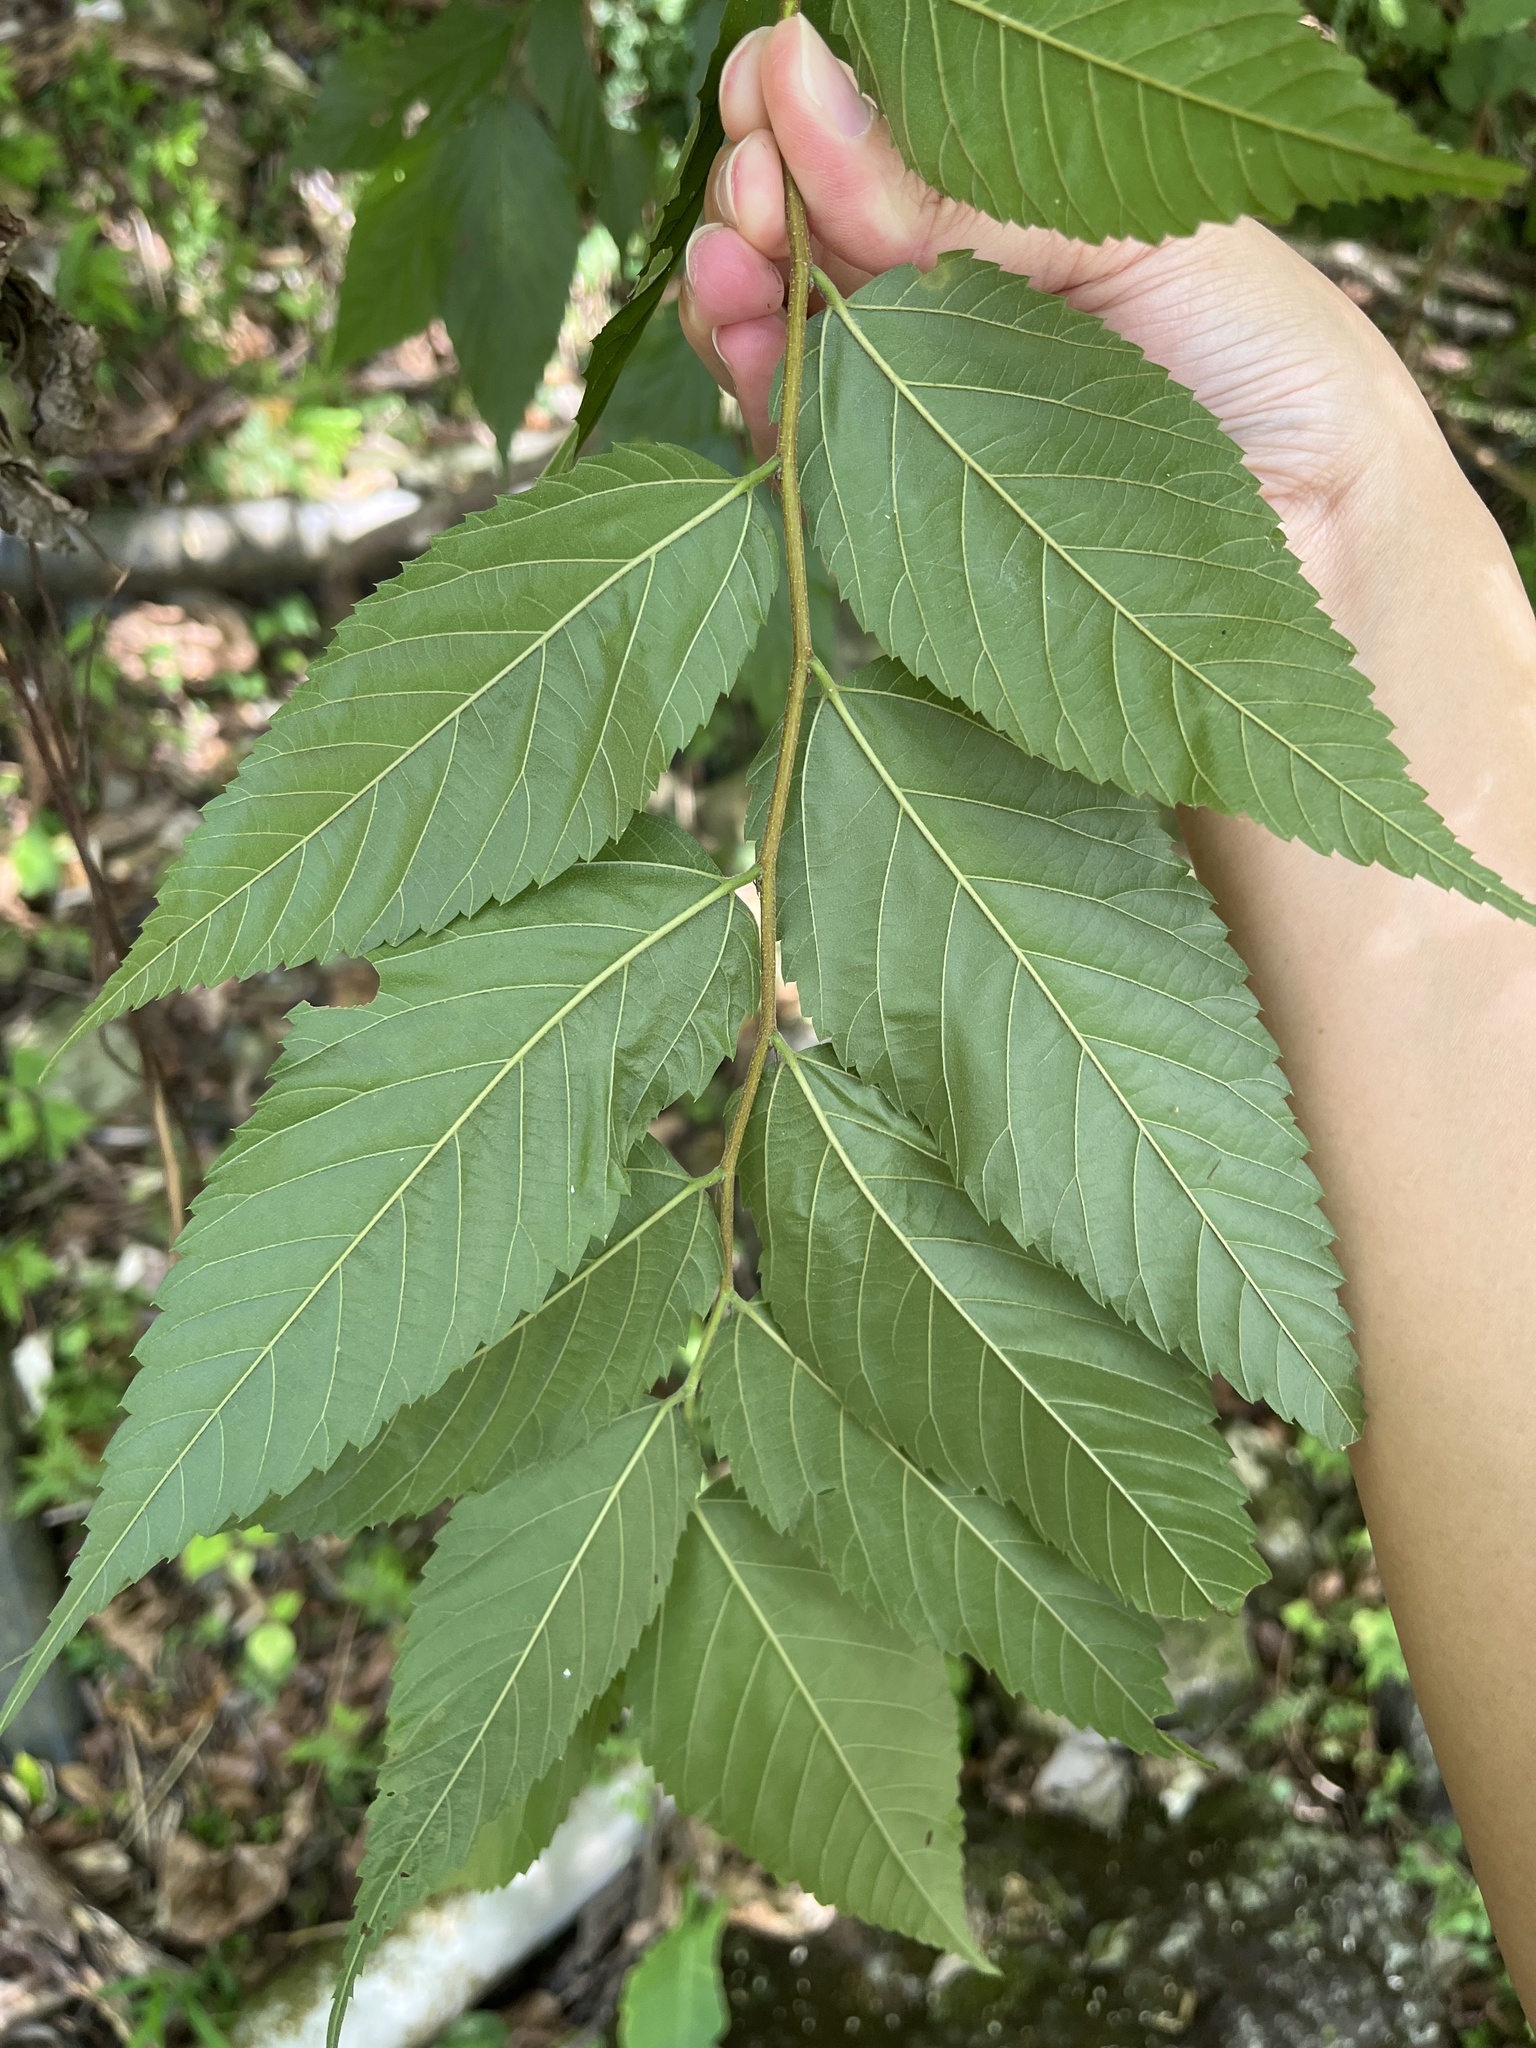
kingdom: Plantae
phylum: Tracheophyta
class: Magnoliopsida
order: Rosales
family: Cannabaceae
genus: Aphananthe
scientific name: Aphananthe aspera
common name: Mukutree
